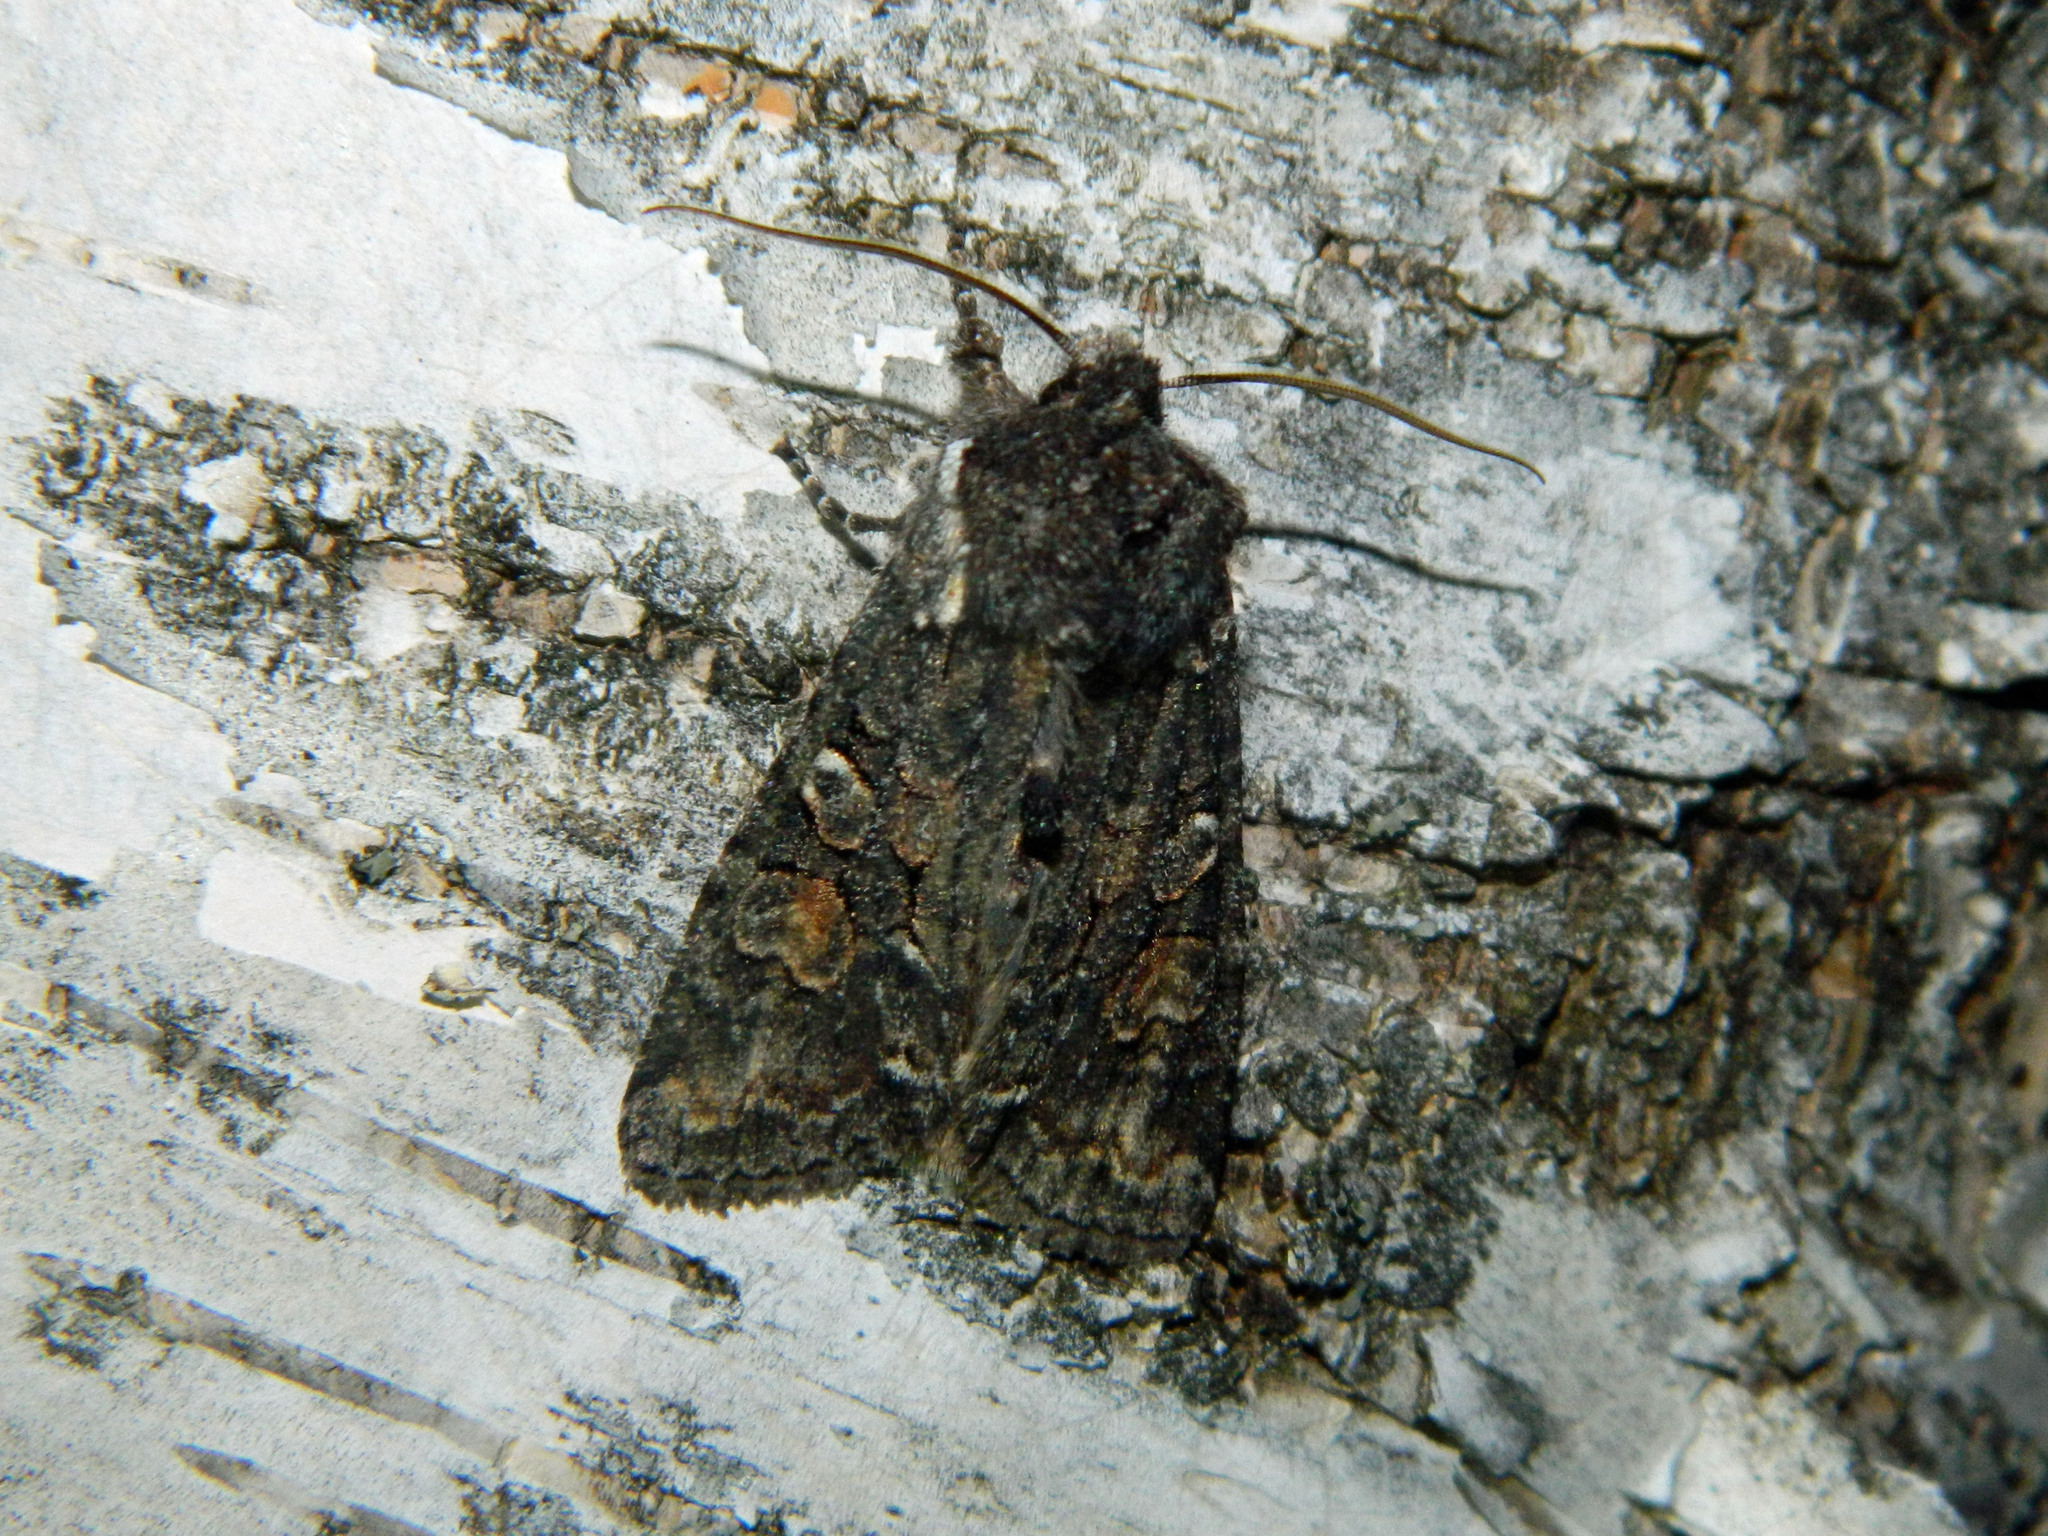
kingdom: Animalia
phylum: Arthropoda
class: Insecta
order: Lepidoptera
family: Noctuidae
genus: Lithophane
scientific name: Lithophane pexata
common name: Plush-naped pinion moth
